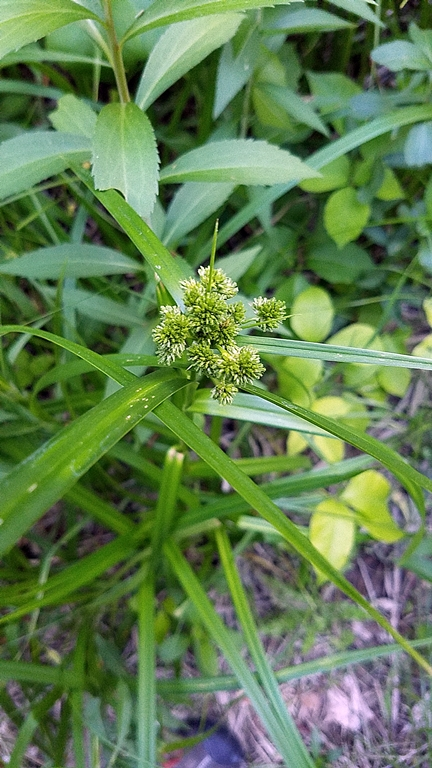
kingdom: Plantae
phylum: Tracheophyta
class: Liliopsida
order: Poales
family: Cyperaceae
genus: Scirpus
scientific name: Scirpus pallidus
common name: Cloaked bulrush
